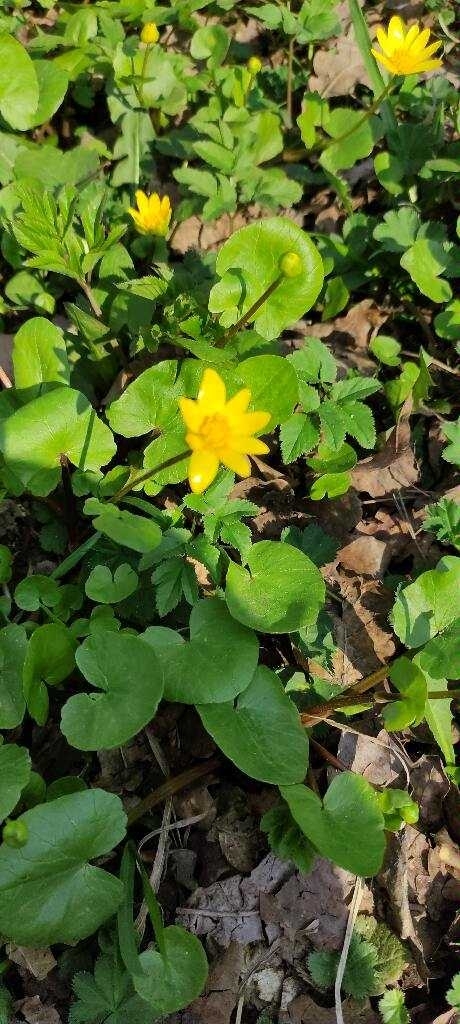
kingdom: Plantae
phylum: Tracheophyta
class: Magnoliopsida
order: Ranunculales
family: Ranunculaceae
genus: Ficaria
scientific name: Ficaria verna
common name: Lesser celandine
